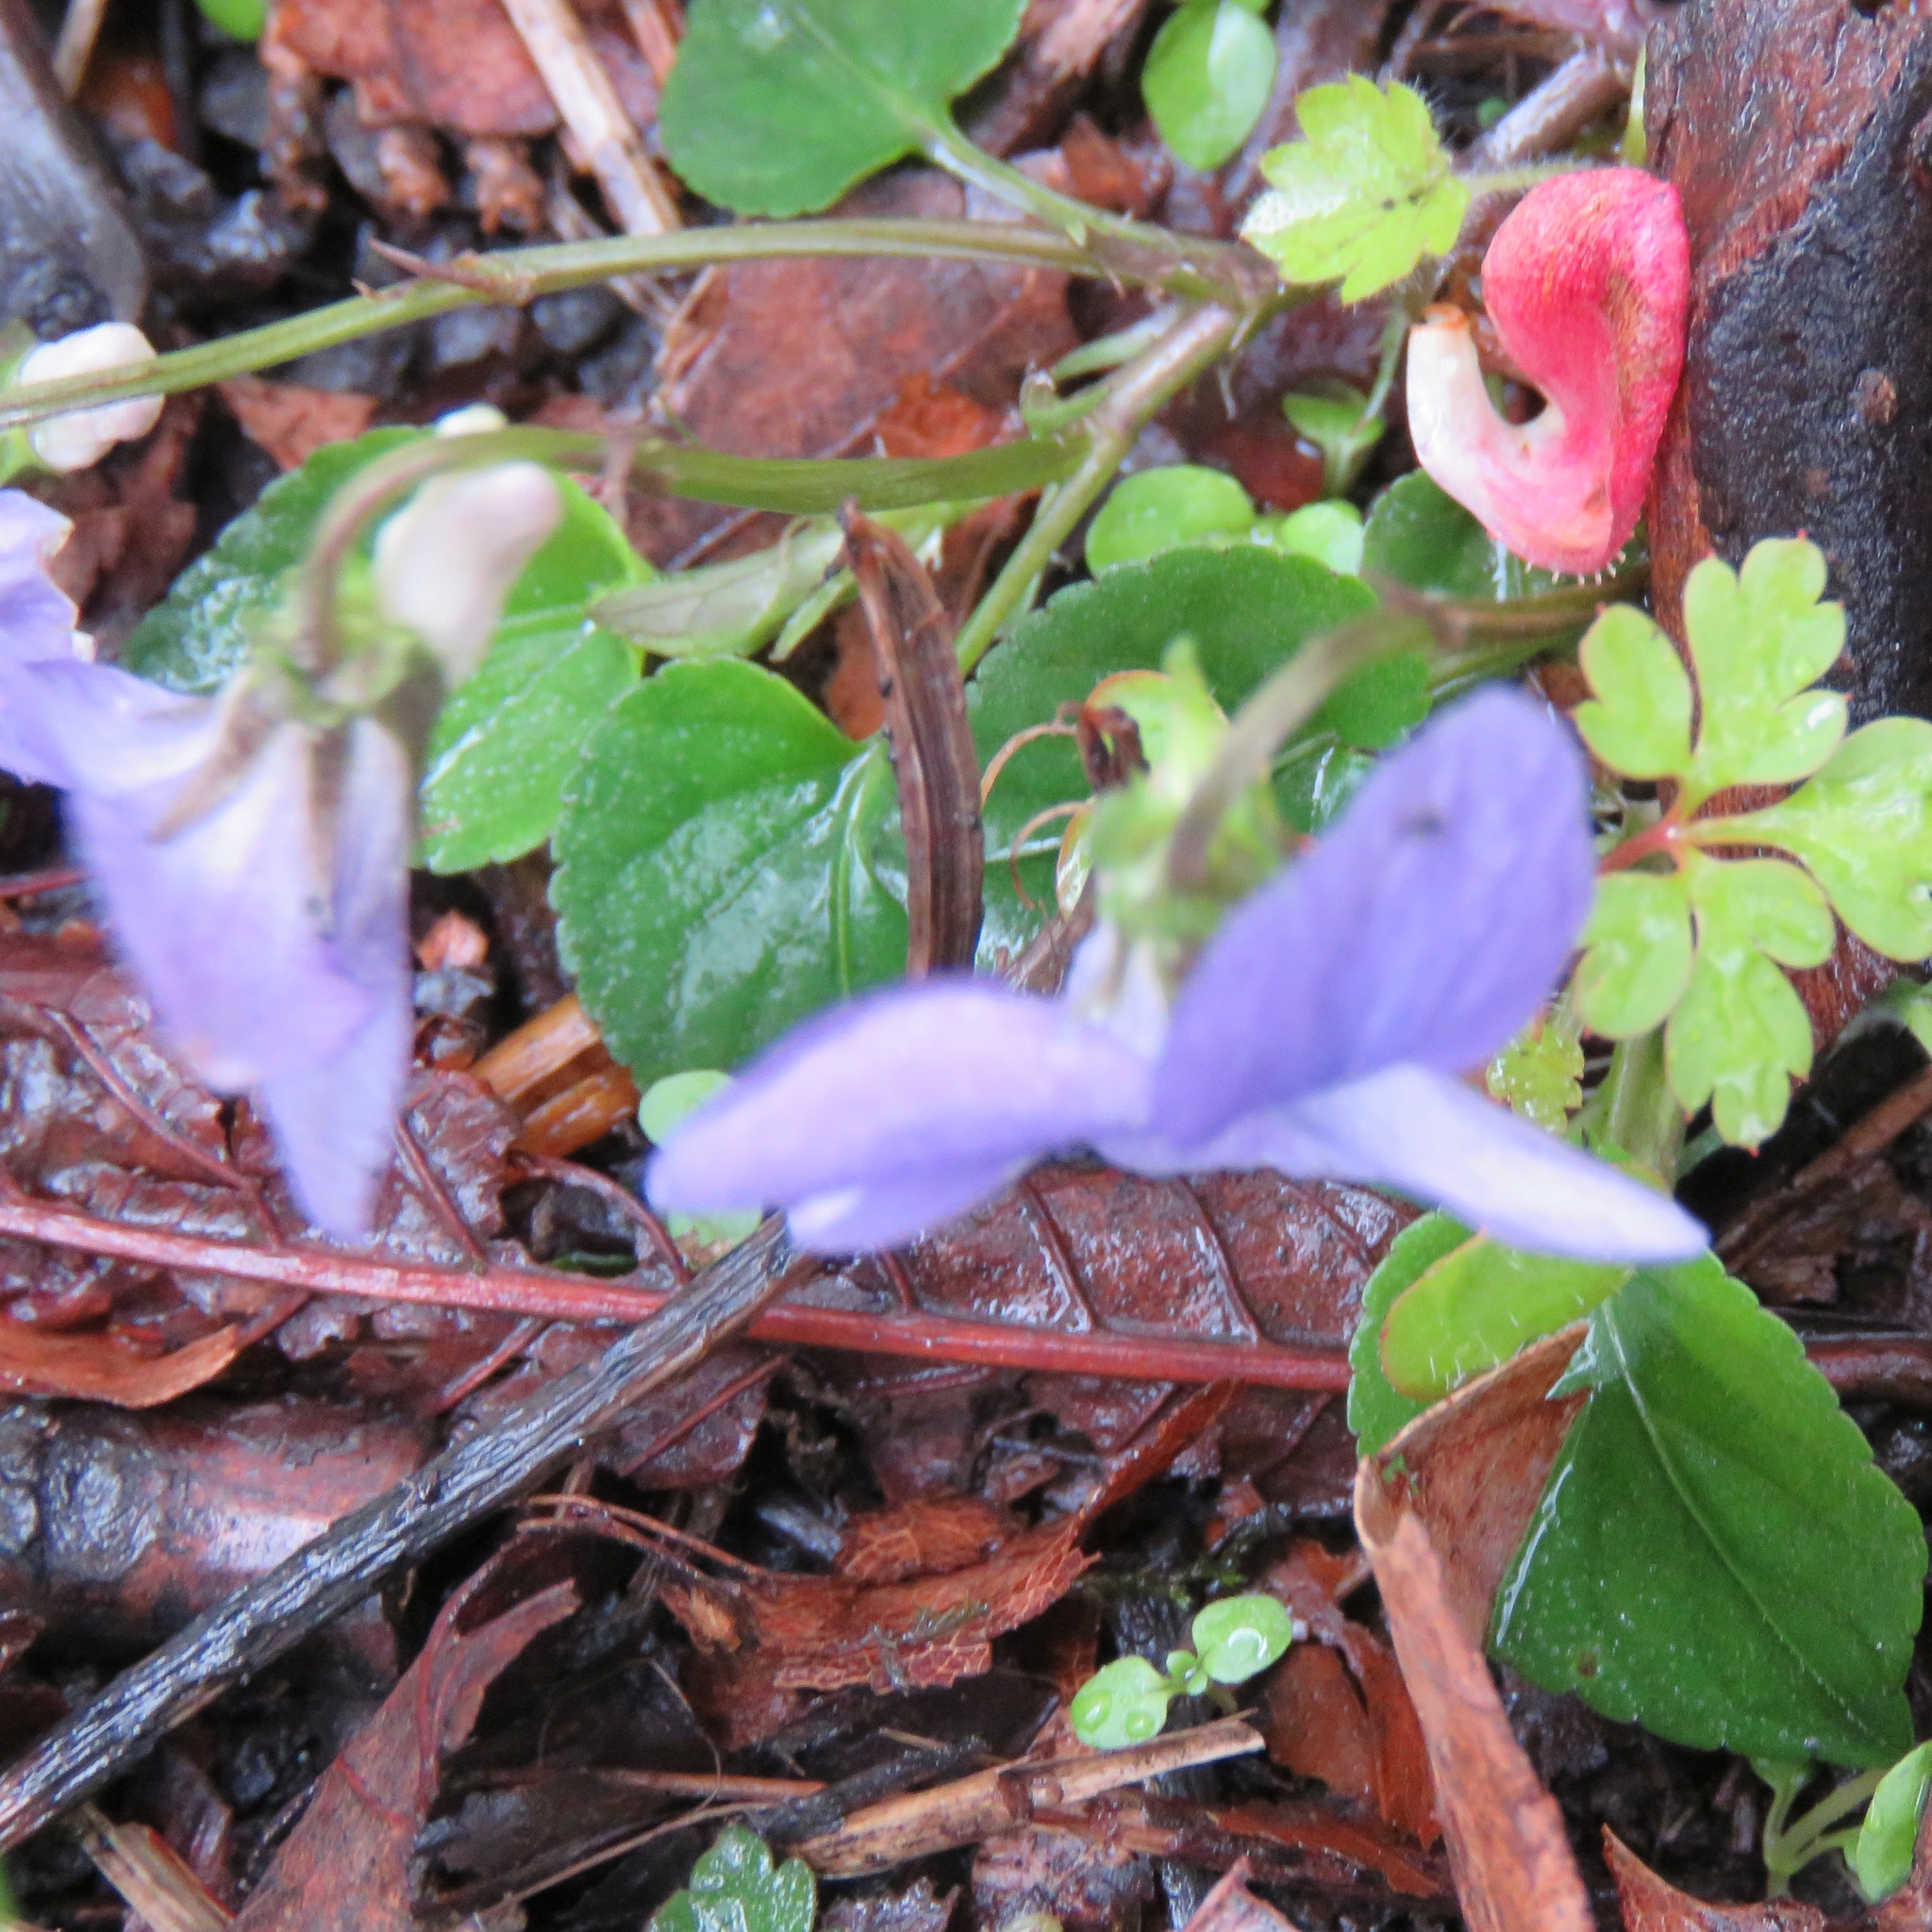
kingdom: Plantae
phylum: Tracheophyta
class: Magnoliopsida
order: Malpighiales
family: Violaceae
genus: Viola
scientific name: Viola riviniana
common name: Common dog-violet
